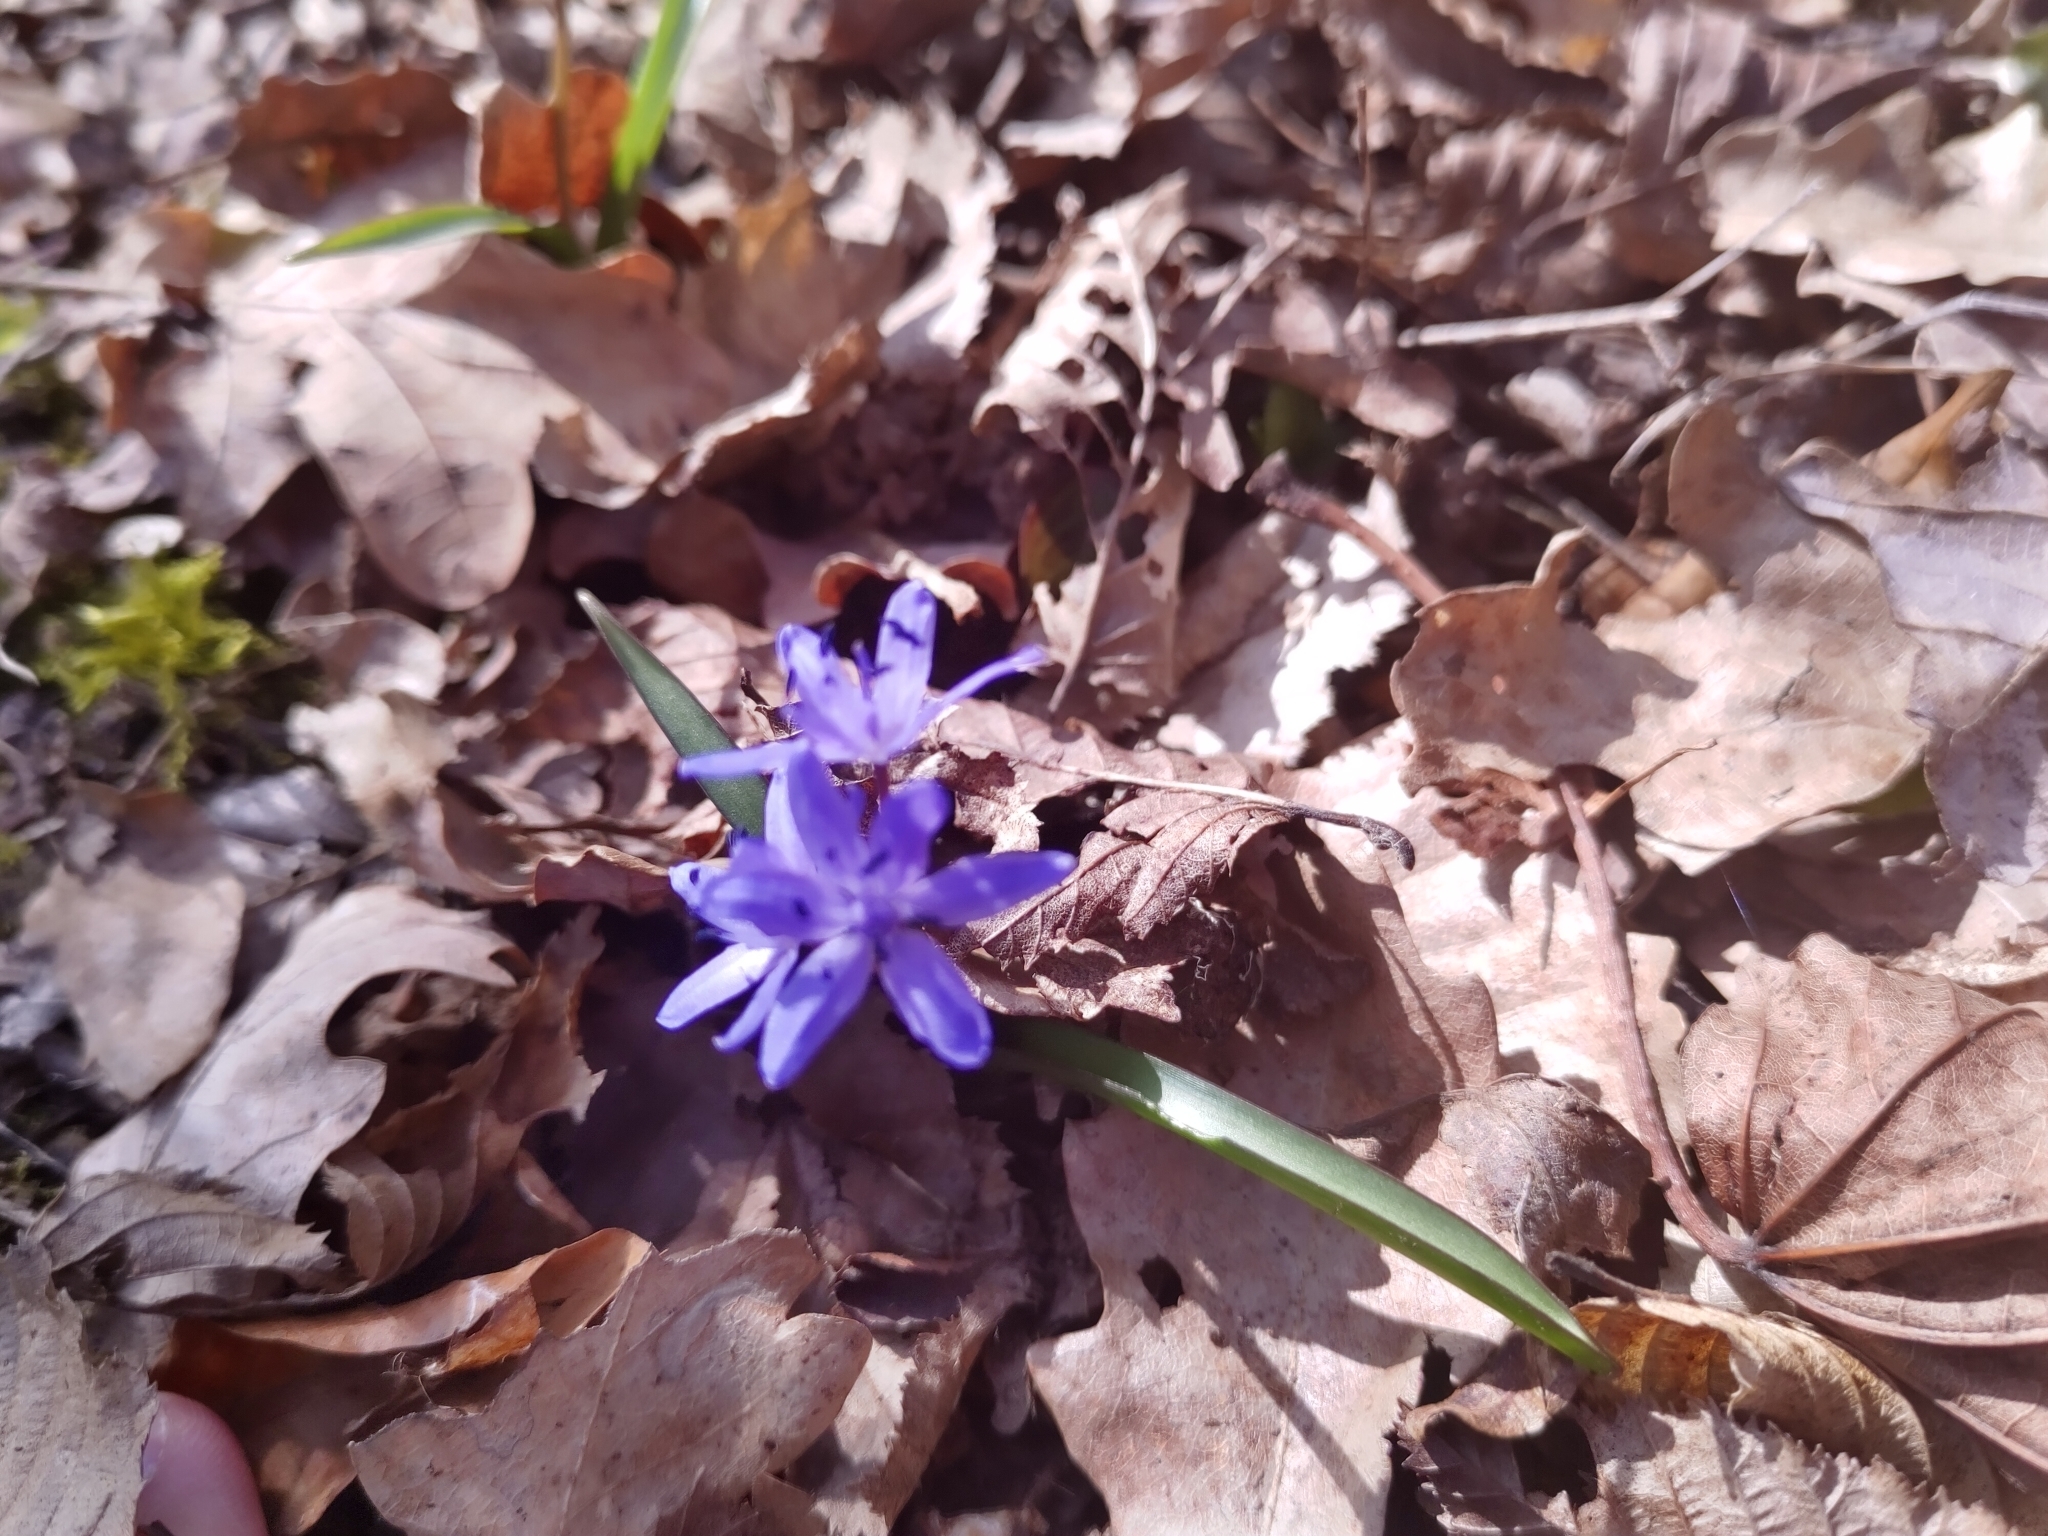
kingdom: Plantae
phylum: Tracheophyta
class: Liliopsida
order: Asparagales
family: Asparagaceae
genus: Scilla
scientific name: Scilla bifolia
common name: Alpine squill
